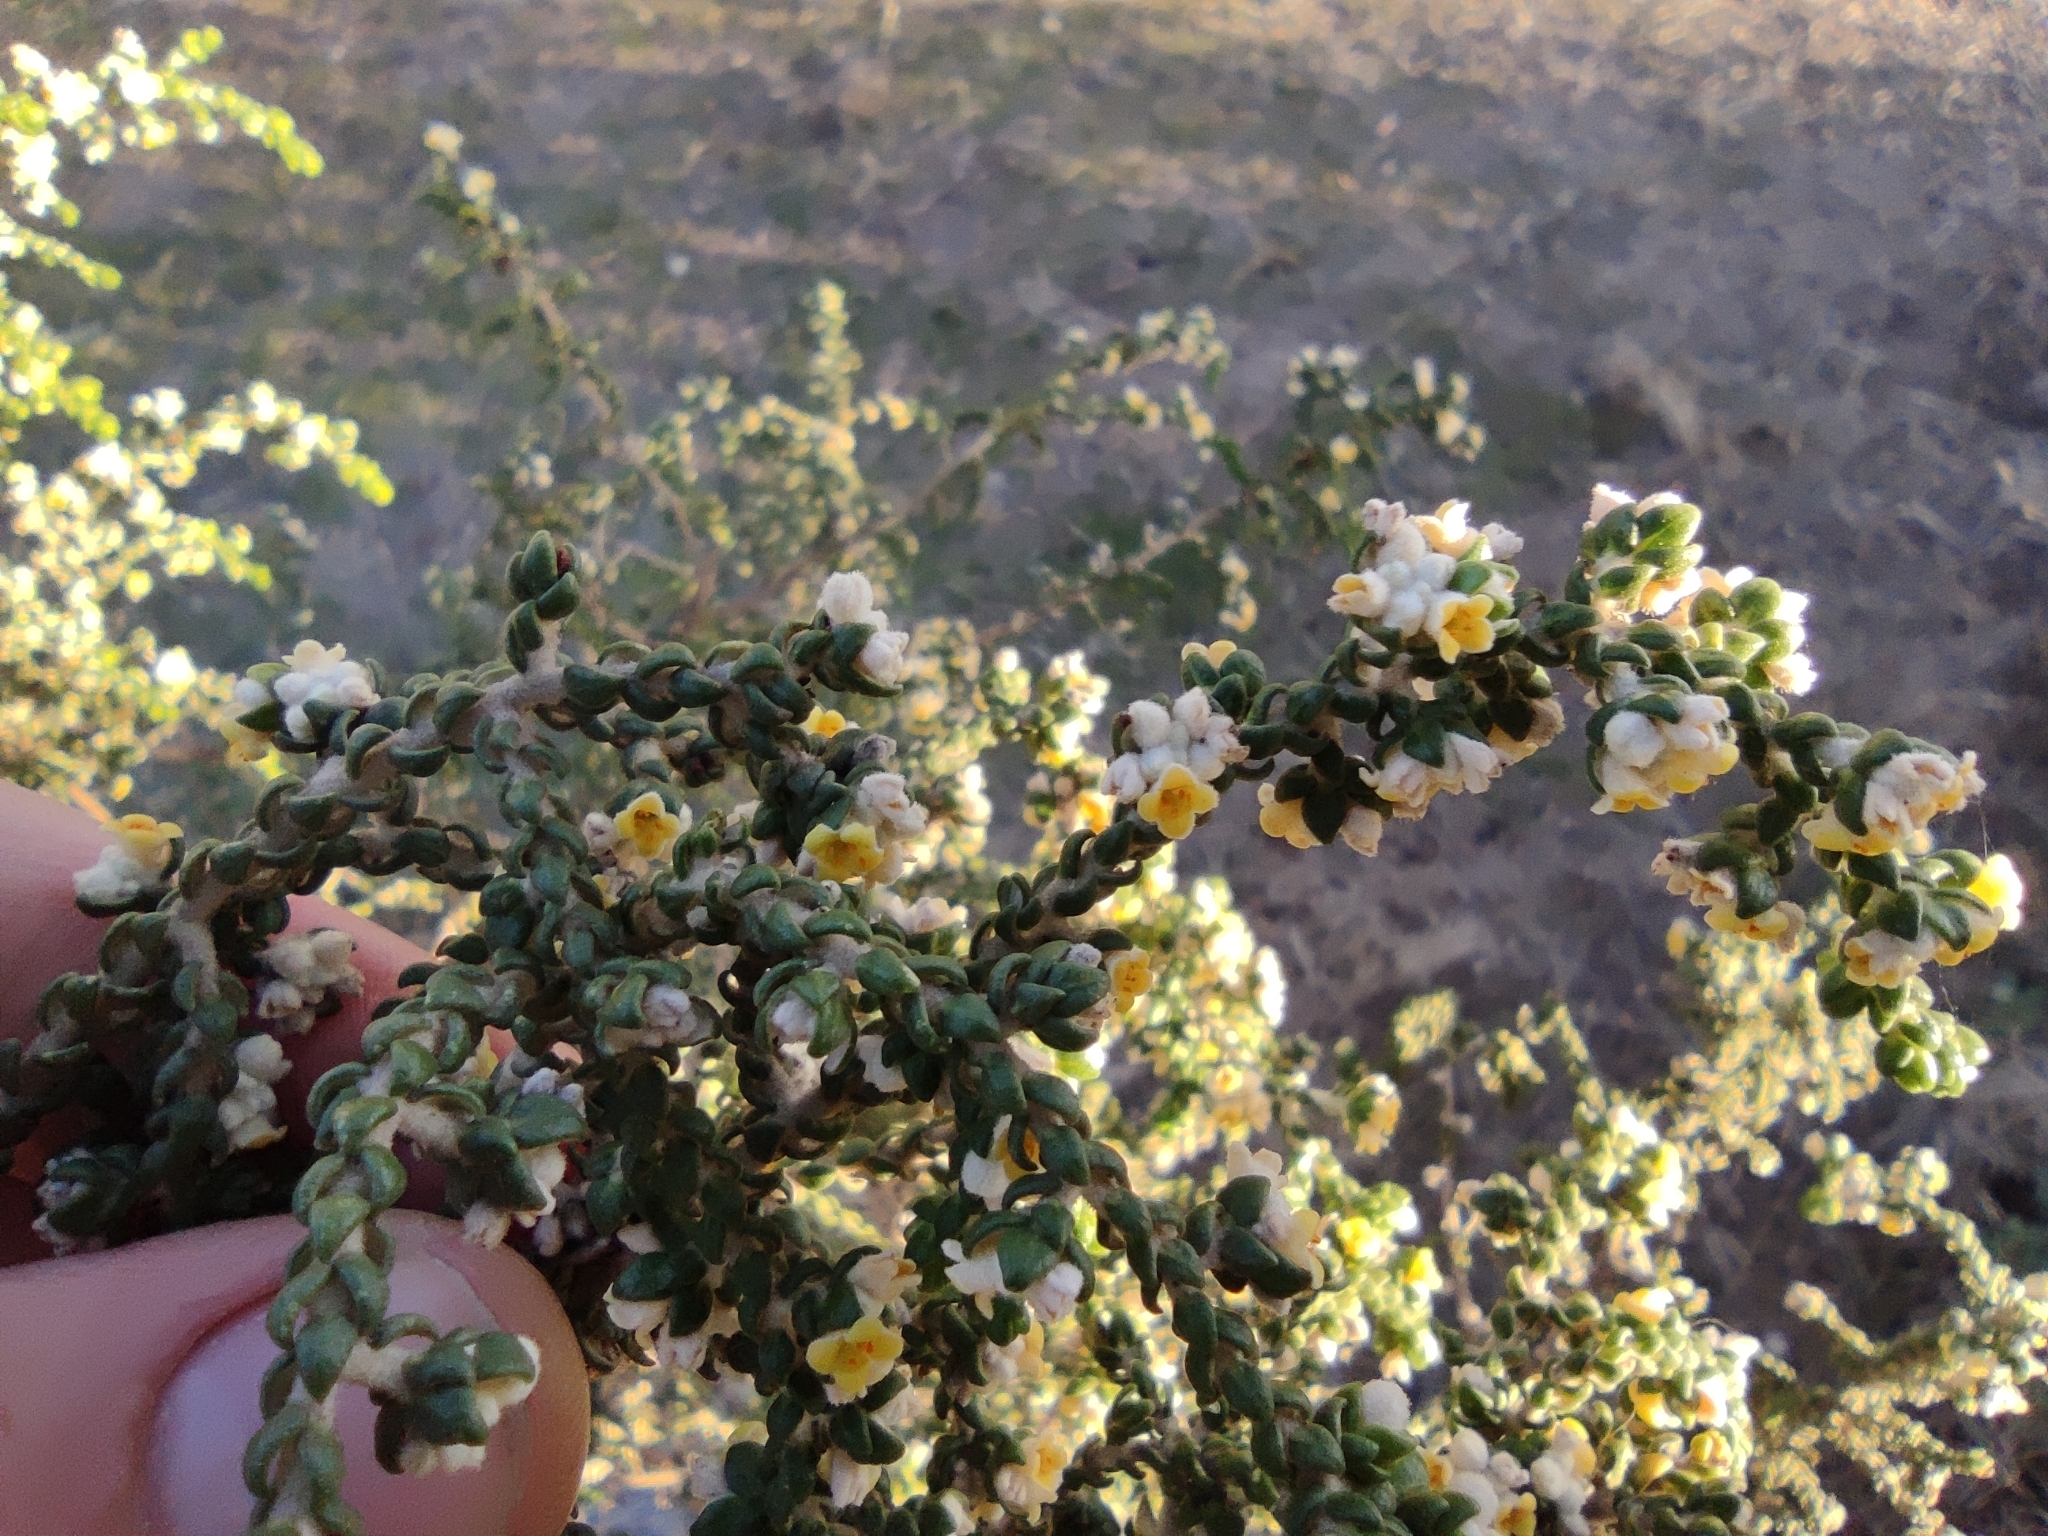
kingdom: Plantae
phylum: Tracheophyta
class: Magnoliopsida
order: Malvales
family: Thymelaeaceae
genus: Thymelaea
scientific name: Thymelaea hirsuta
